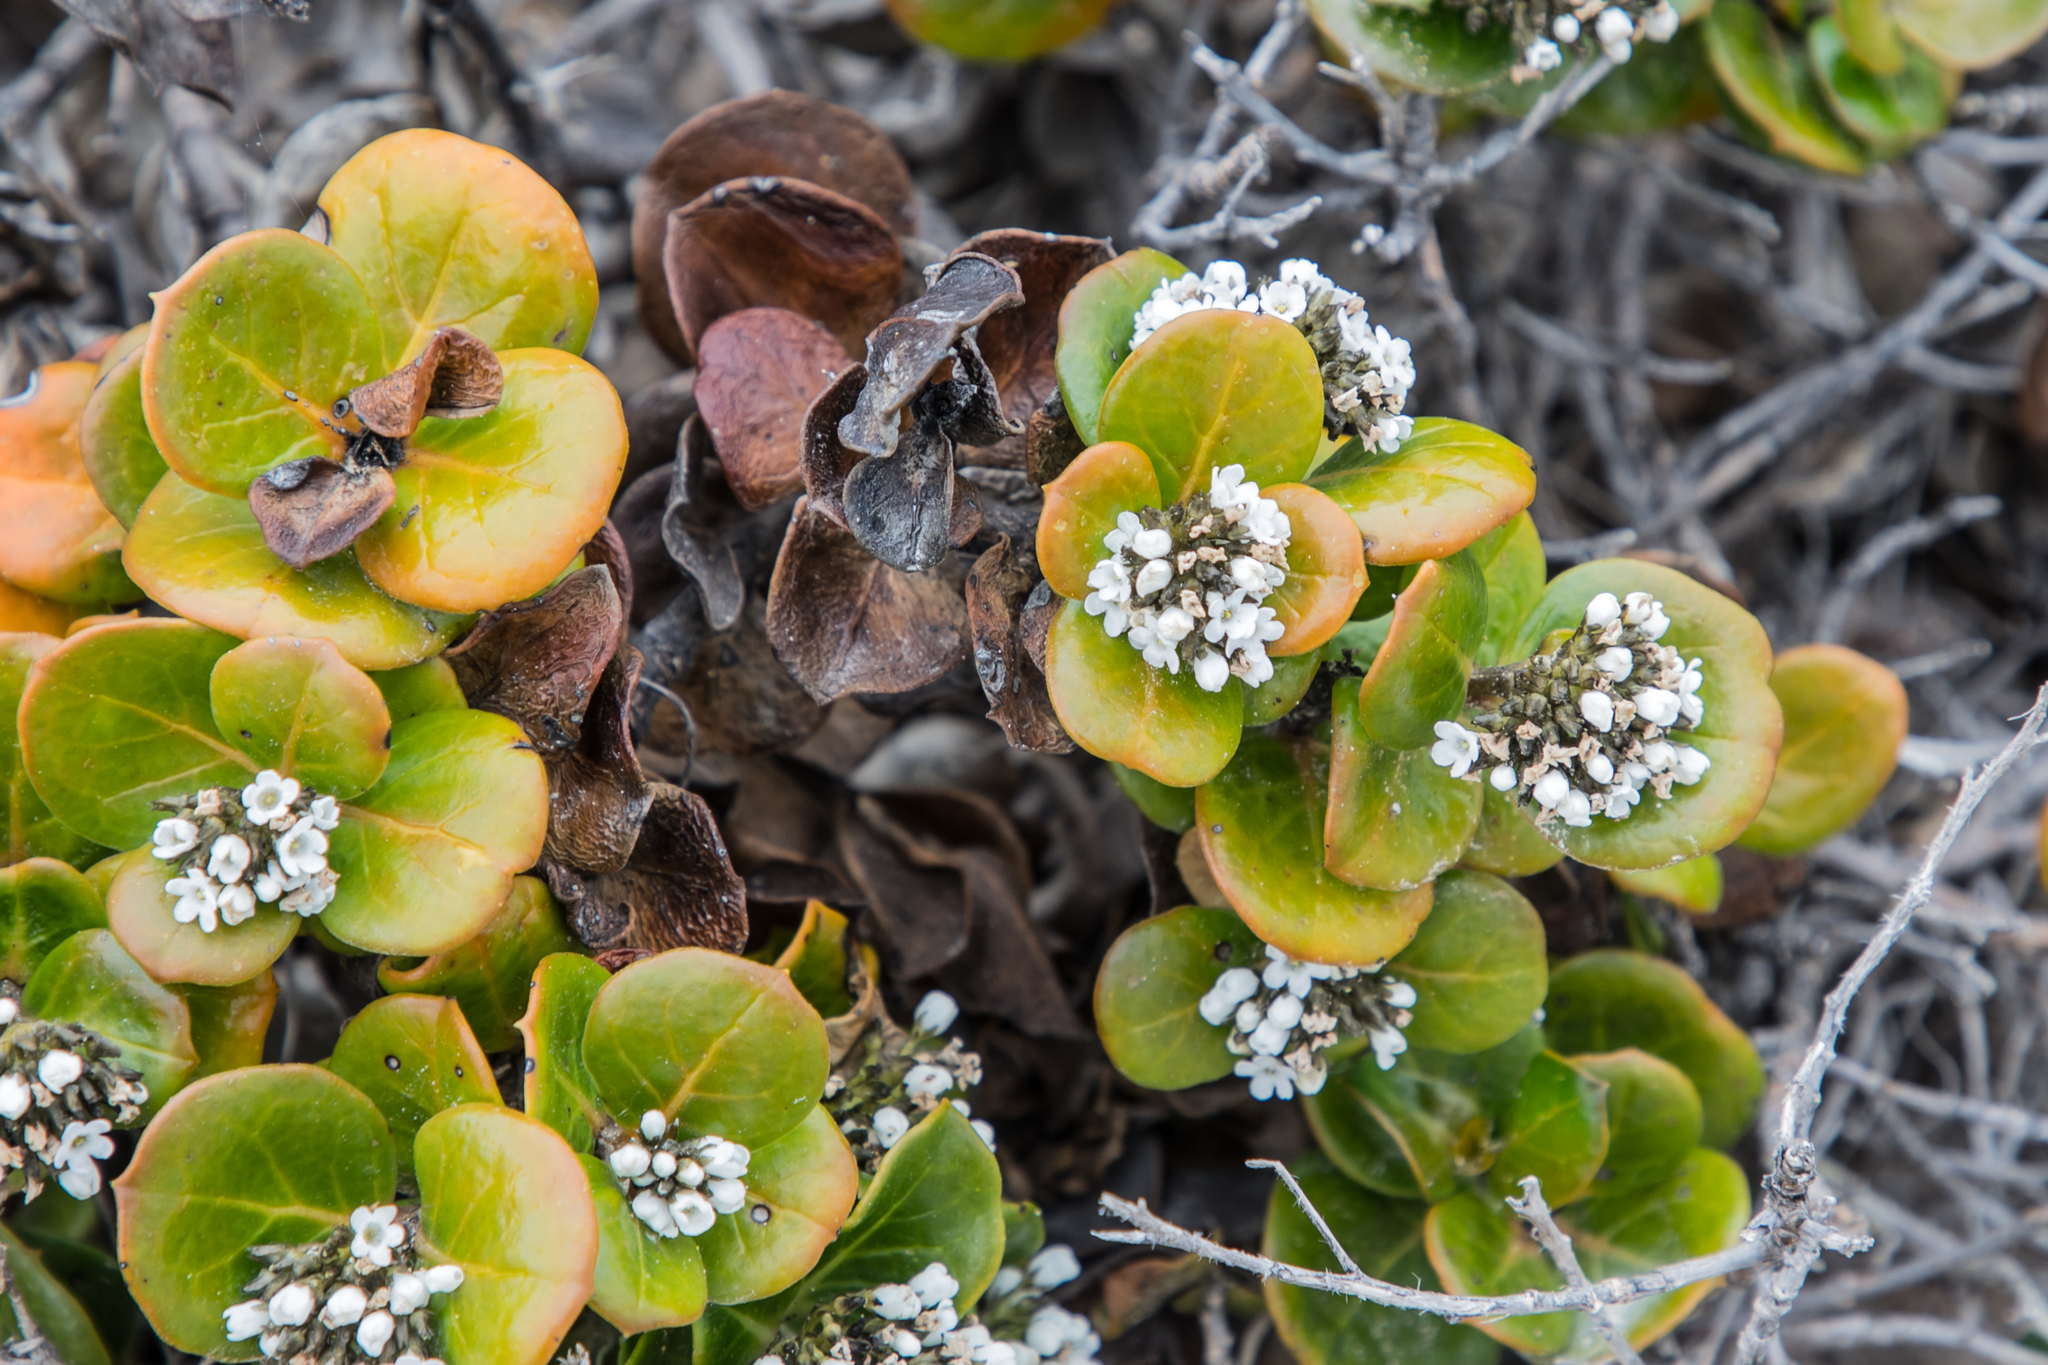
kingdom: Plantae
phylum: Tracheophyta
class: Magnoliopsida
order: Gentianales
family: Loganiaceae
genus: Logania
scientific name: Logania crassifolia
